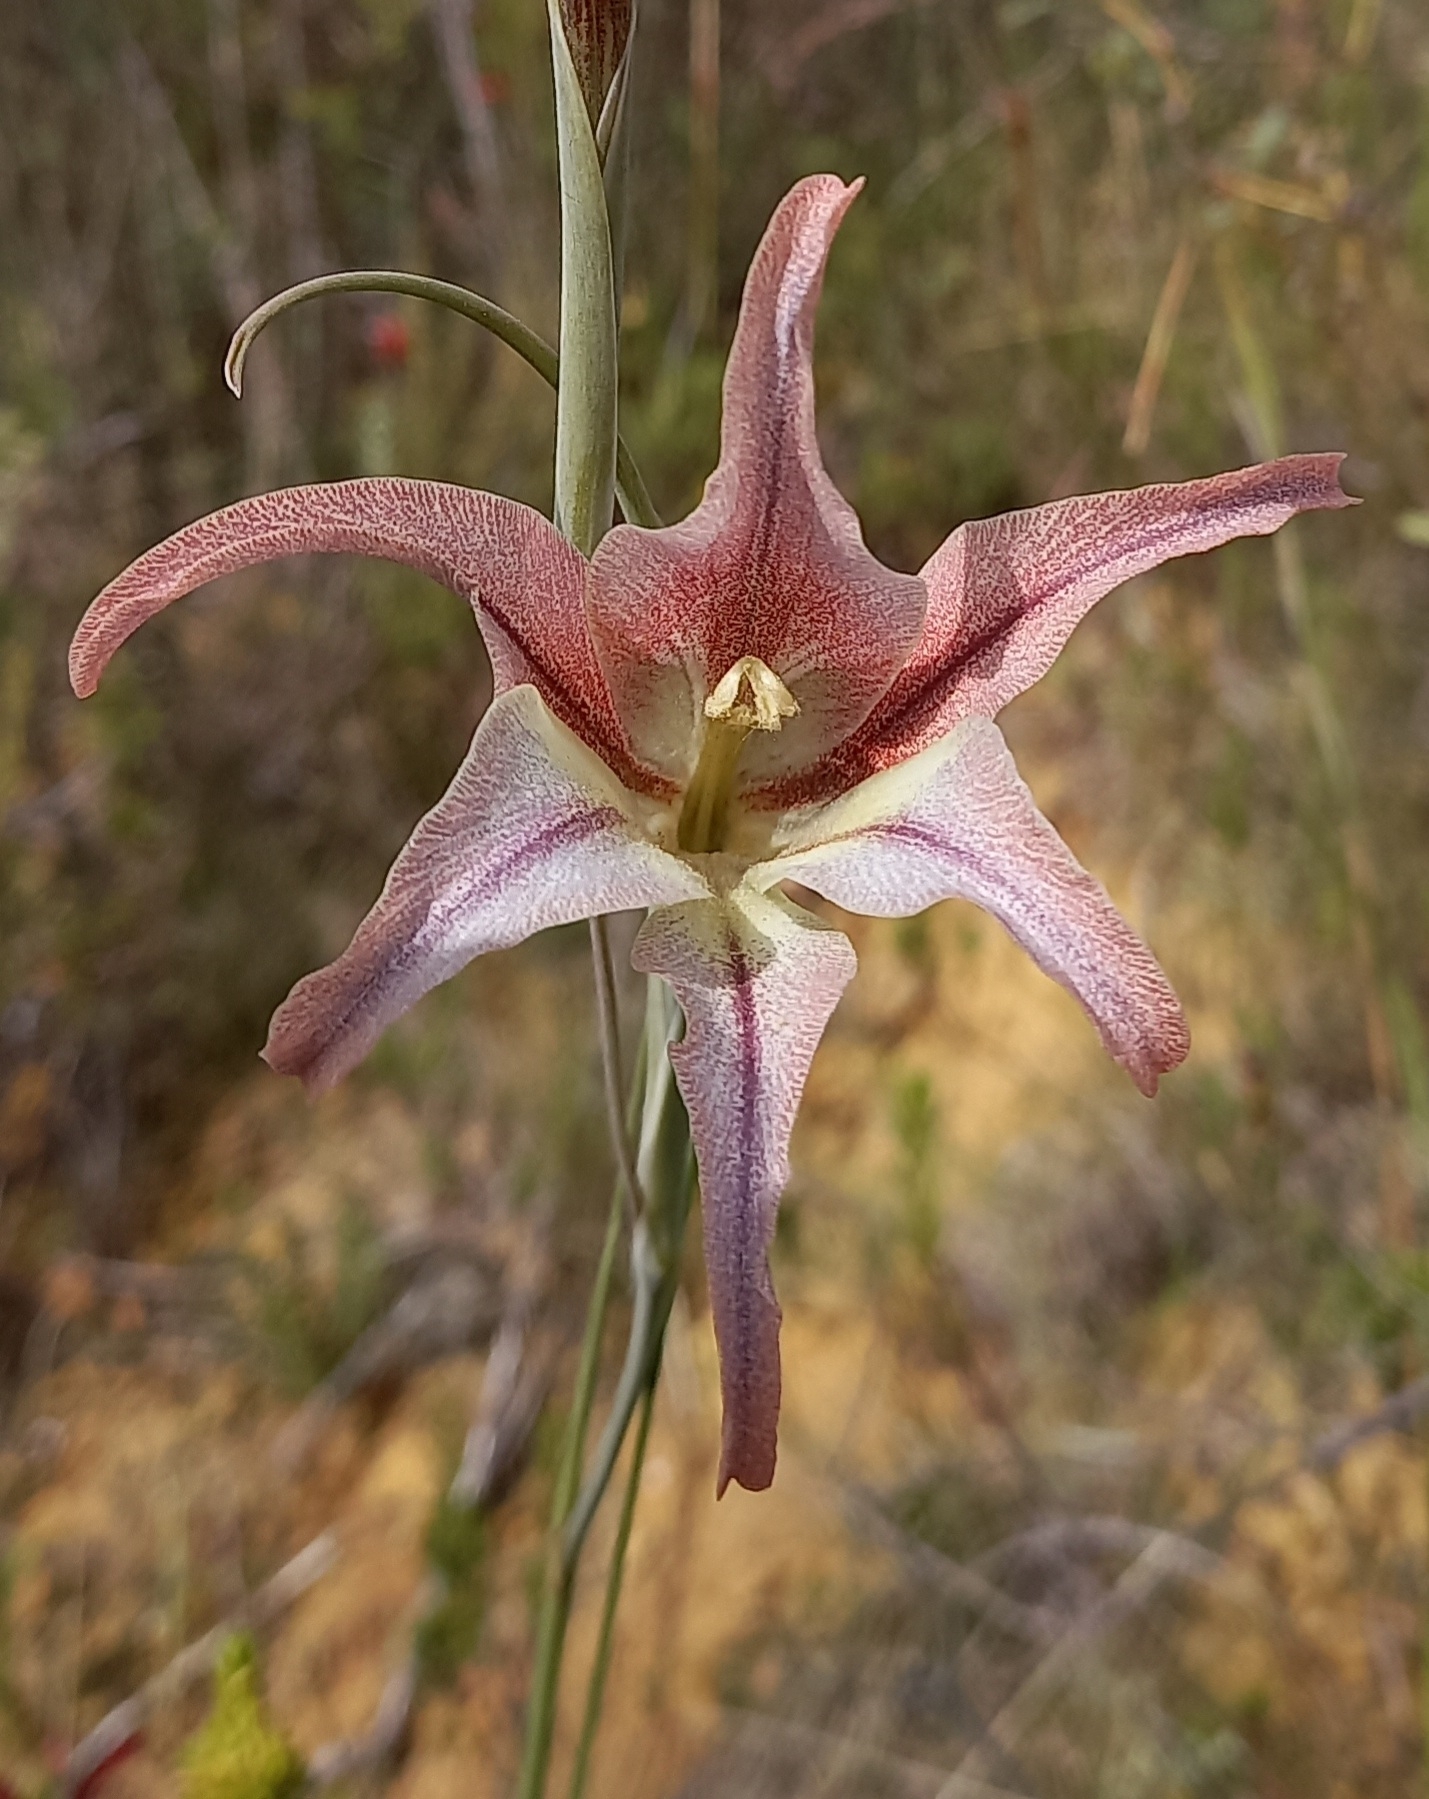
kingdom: Plantae
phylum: Tracheophyta
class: Liliopsida
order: Asparagales
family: Iridaceae
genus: Gladiolus
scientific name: Gladiolus liliaceus
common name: Large brown afrikaner
